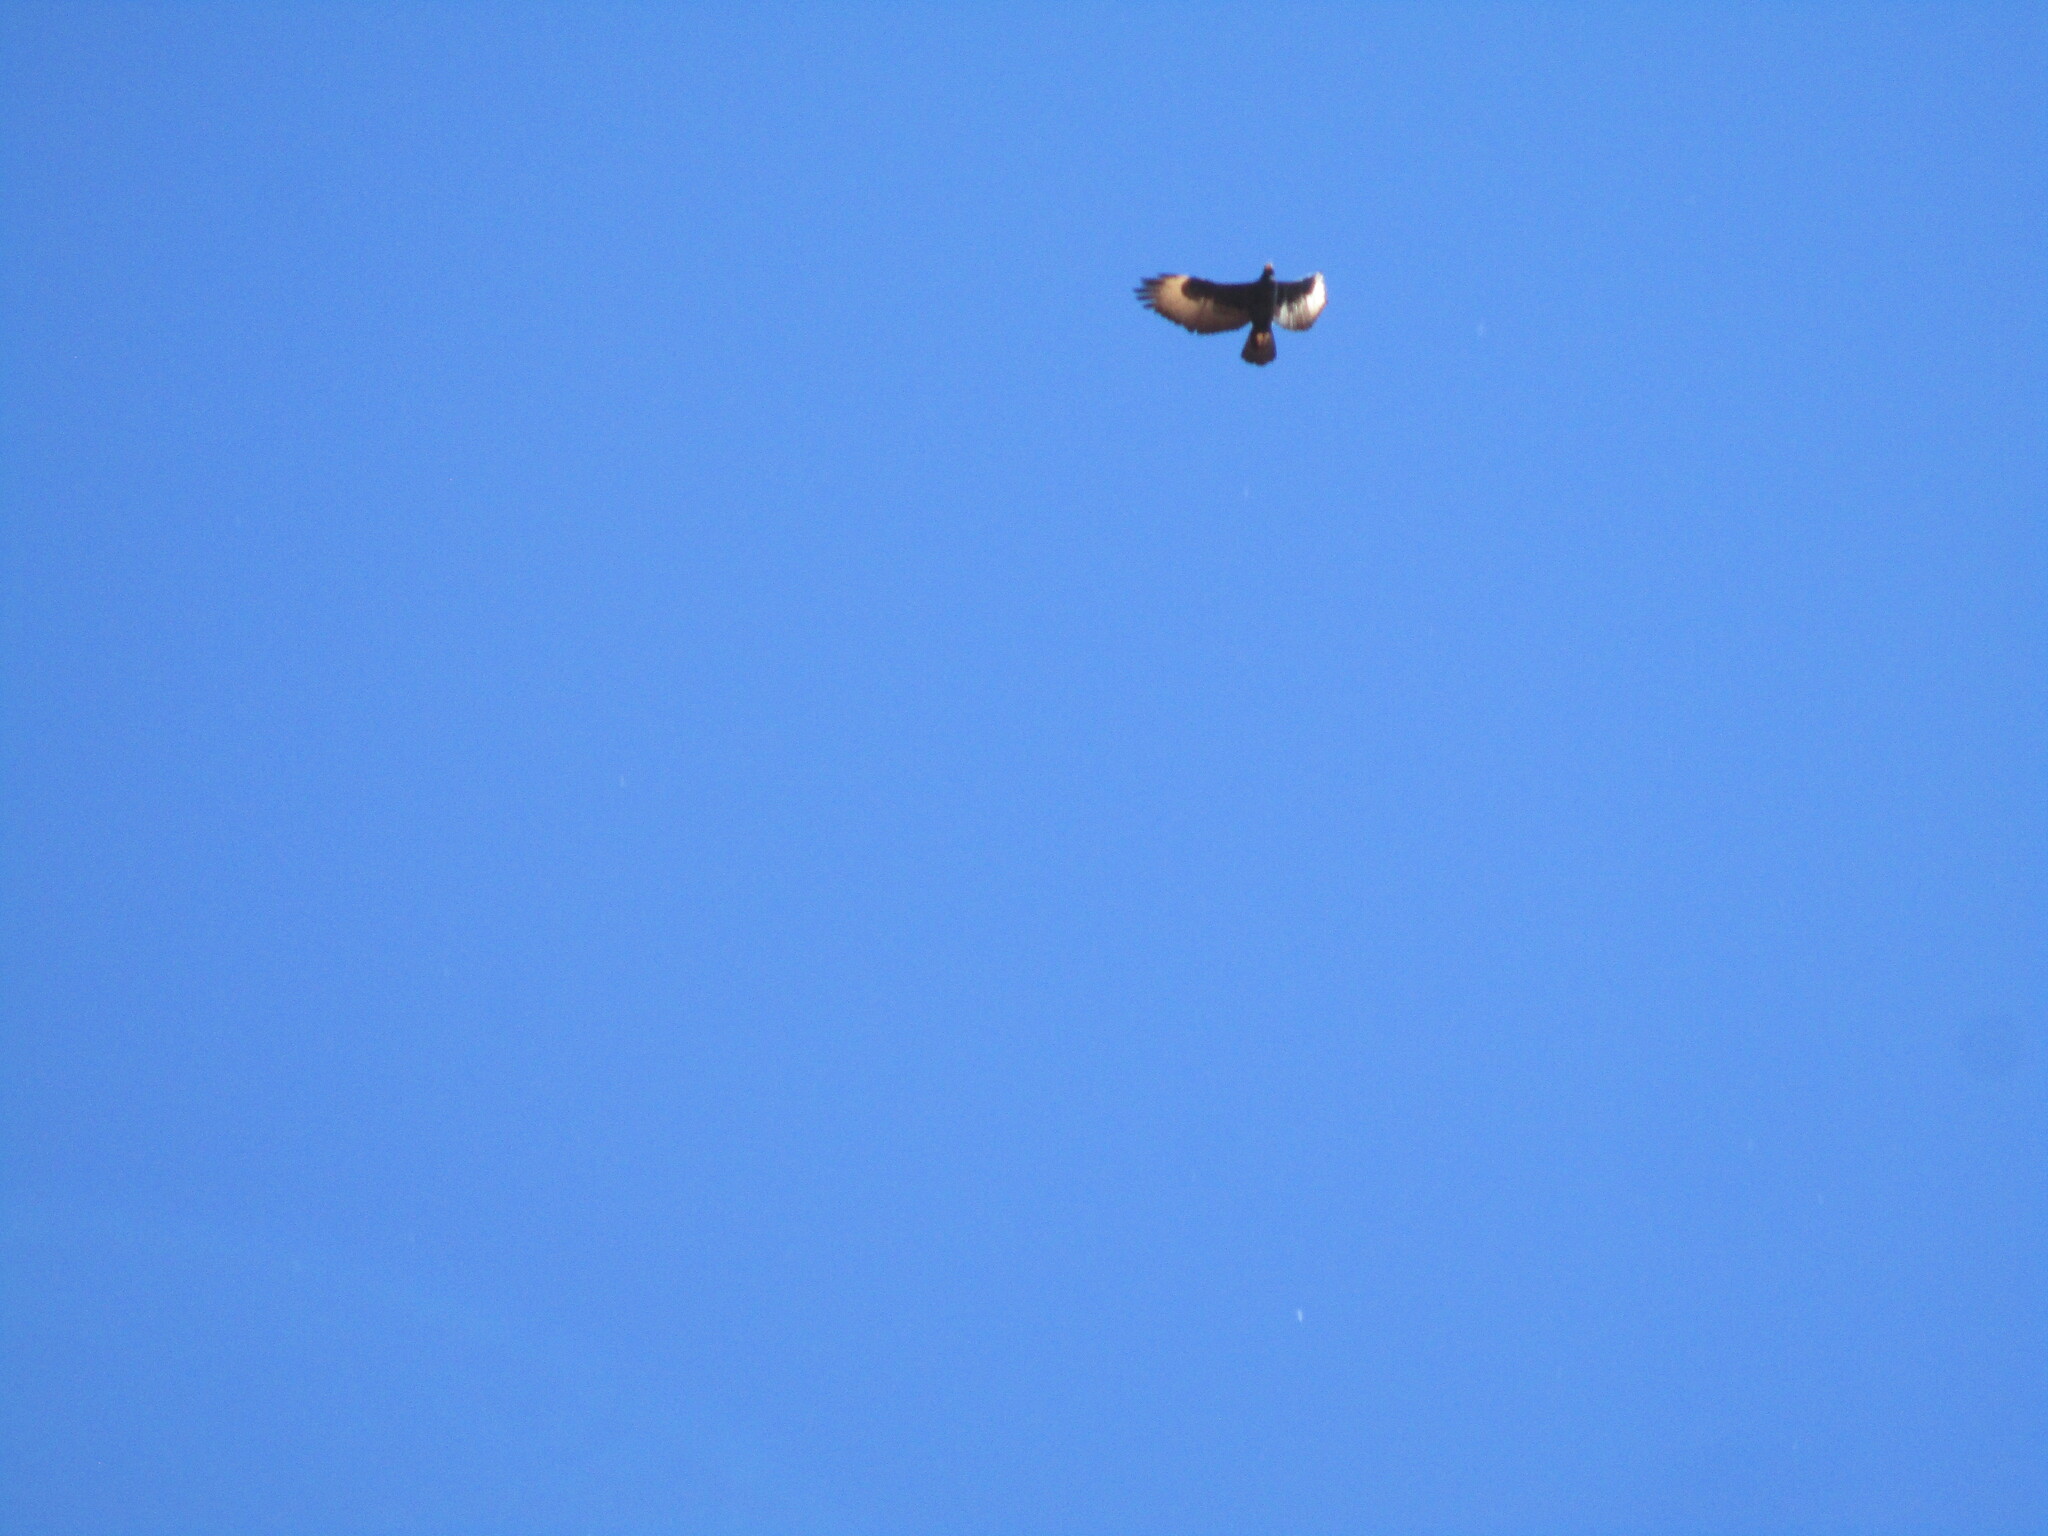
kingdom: Animalia
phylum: Chordata
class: Aves
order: Accipitriformes
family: Accipitridae
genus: Aquila
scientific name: Aquila verreauxii
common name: Verreaux's eagle
